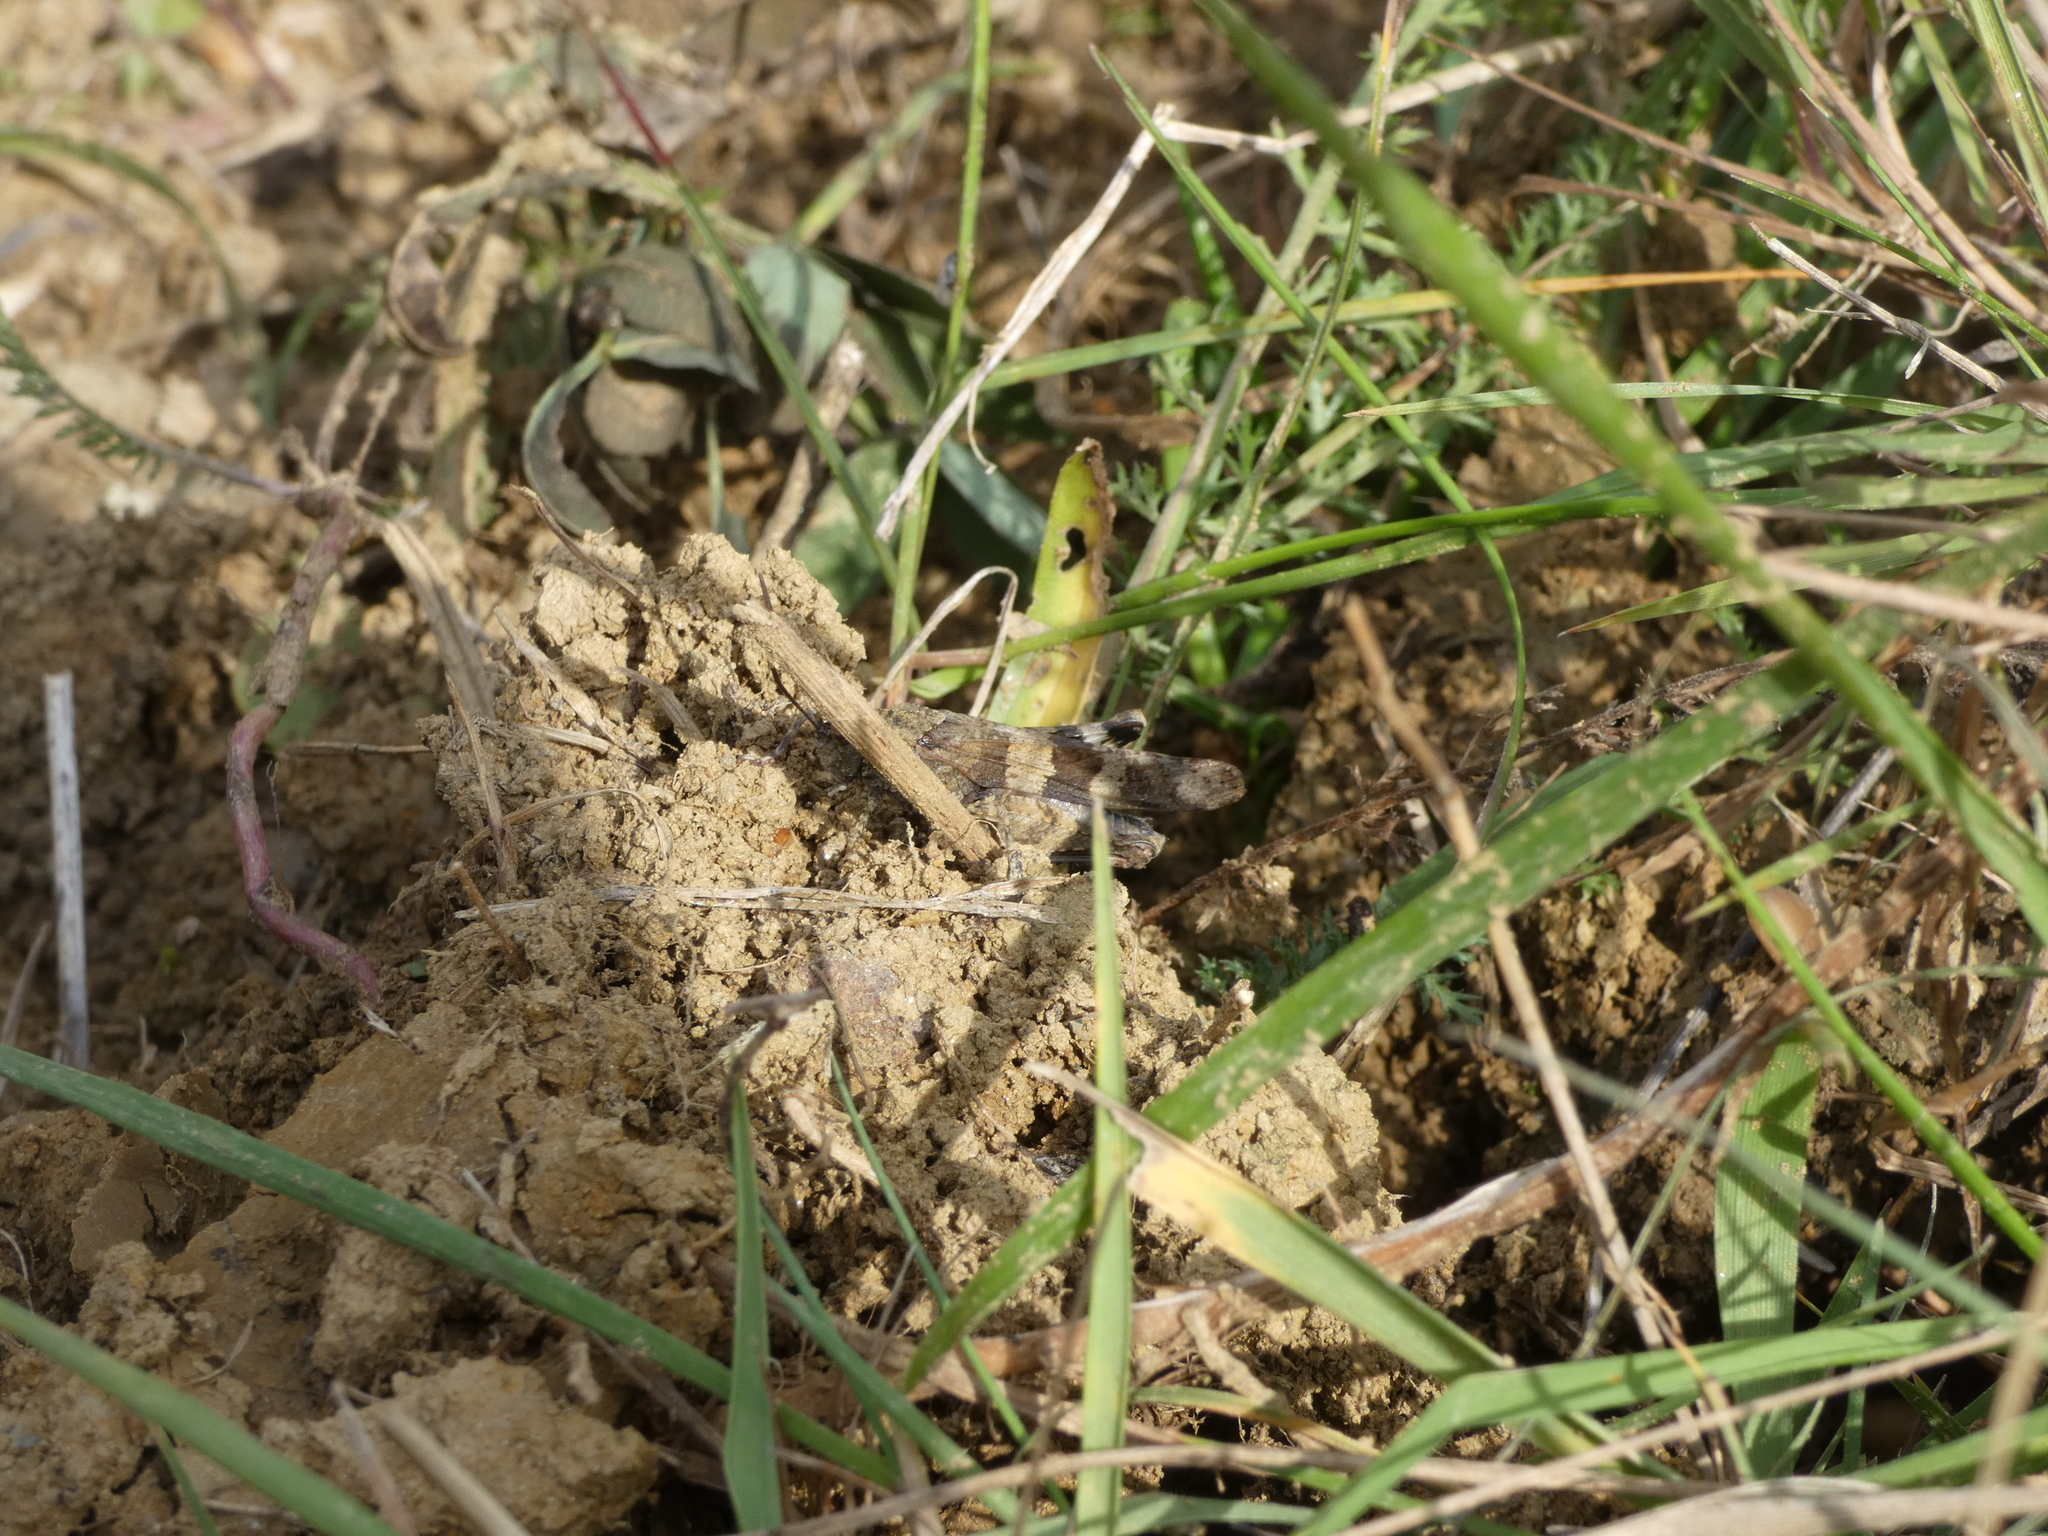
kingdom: Animalia
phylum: Arthropoda
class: Insecta
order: Orthoptera
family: Acrididae
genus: Oedipoda
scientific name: Oedipoda caerulescens
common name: Blue-winged grasshopper
